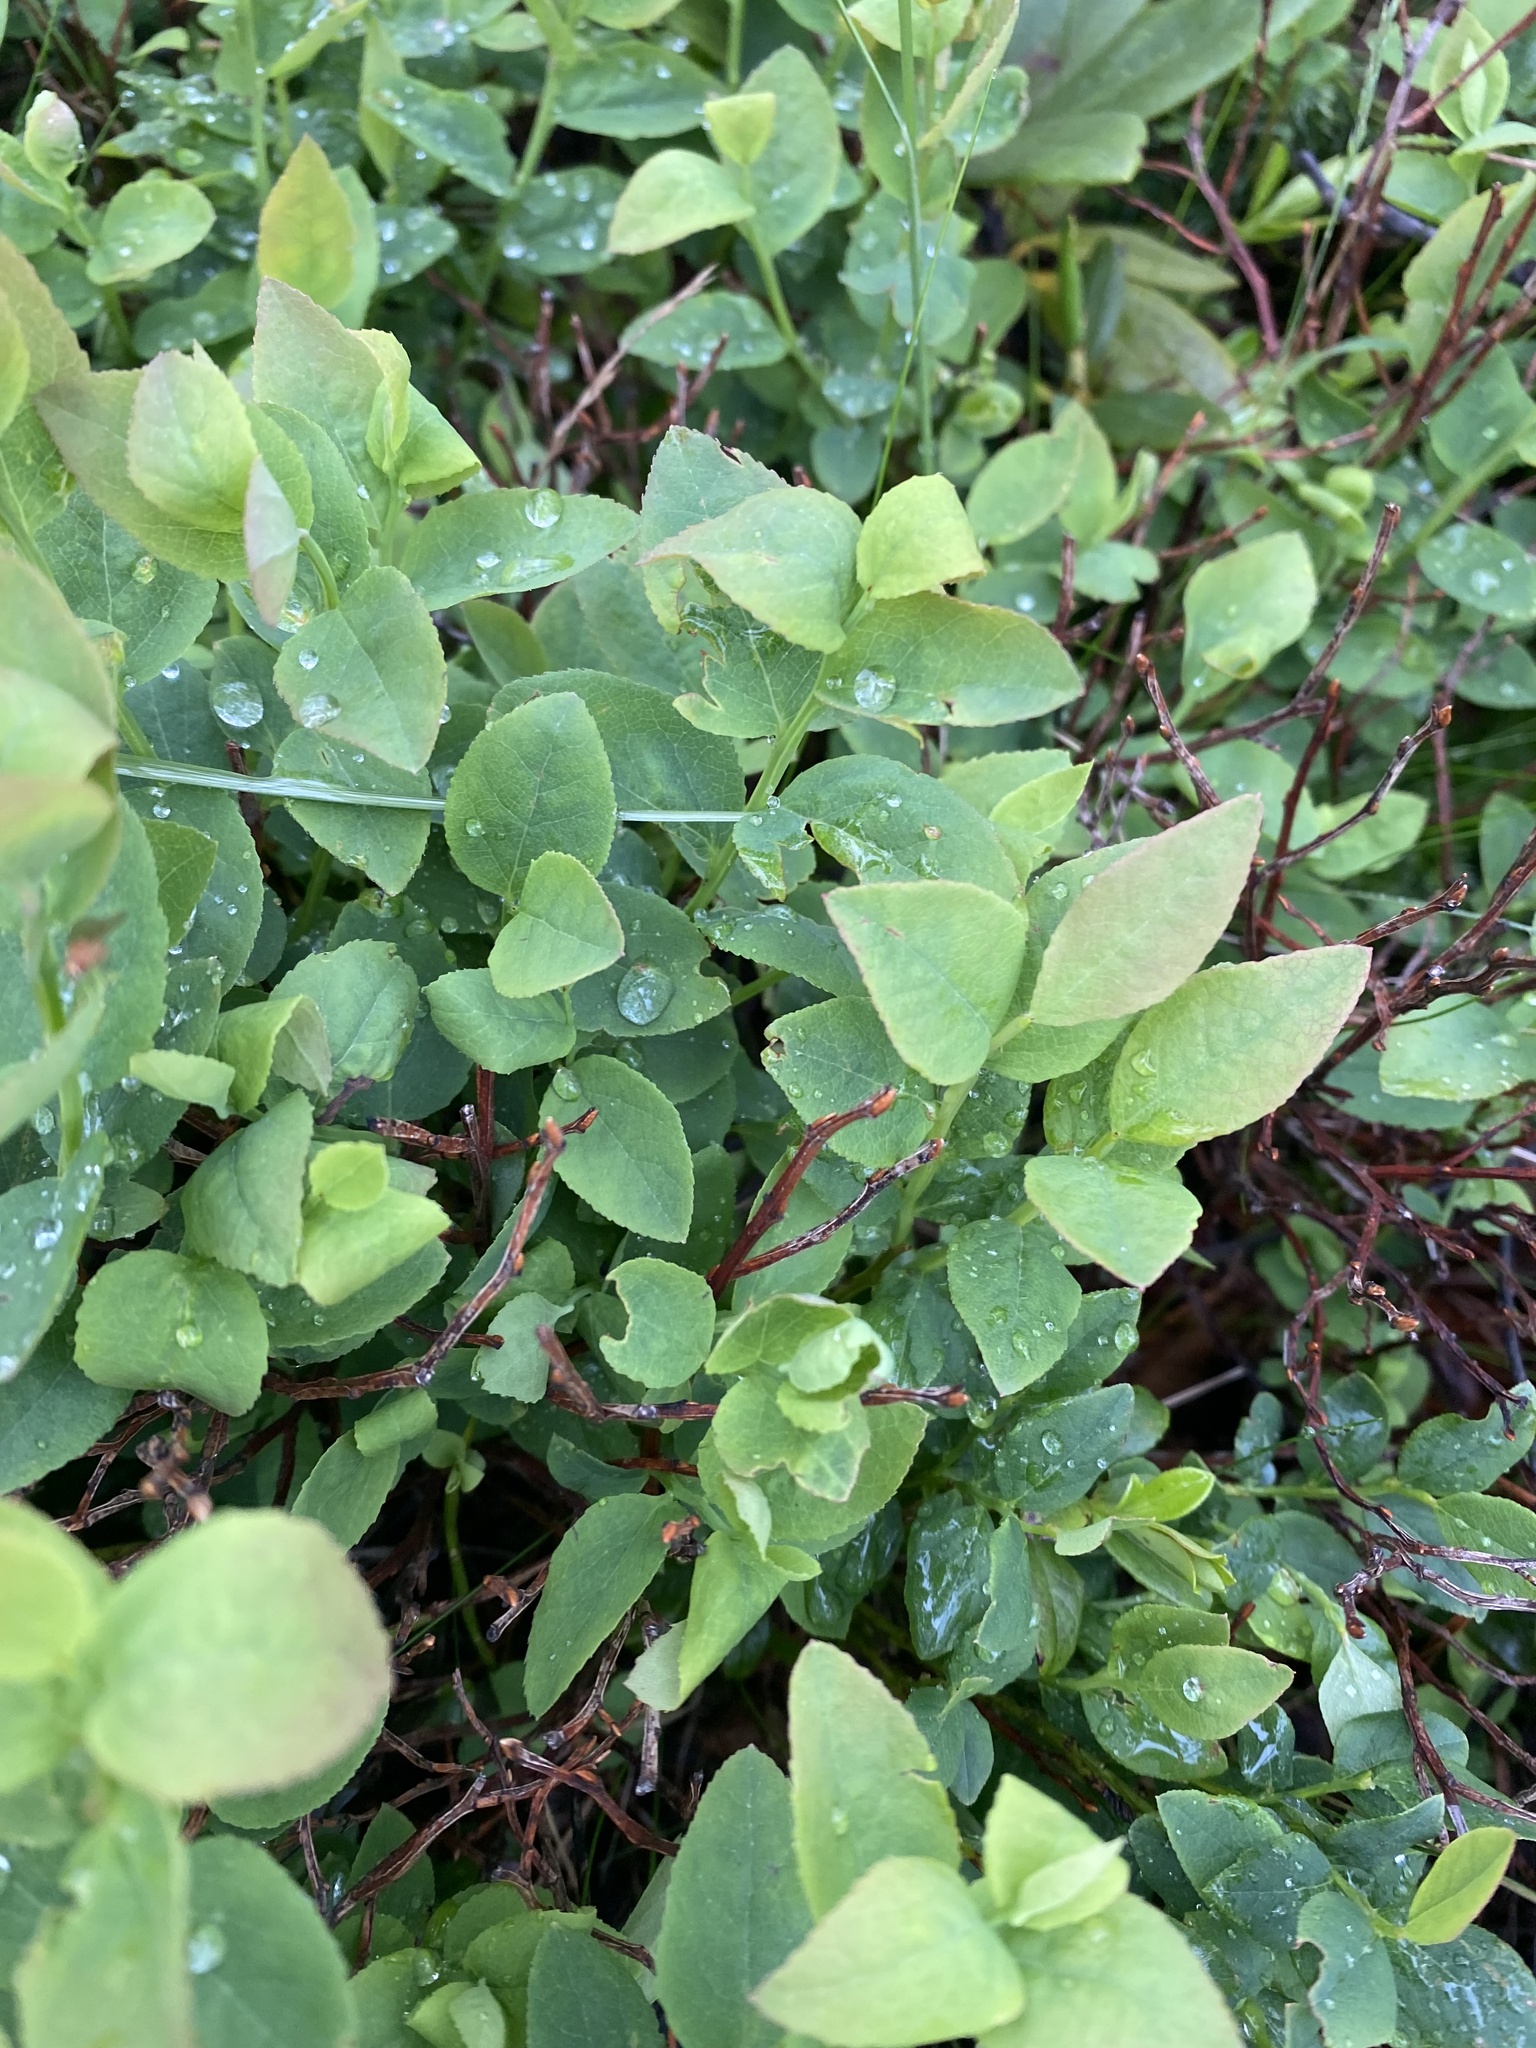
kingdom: Plantae
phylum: Tracheophyta
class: Magnoliopsida
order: Ericales
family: Ericaceae
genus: Vaccinium
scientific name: Vaccinium myrtillus
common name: Bilberry
